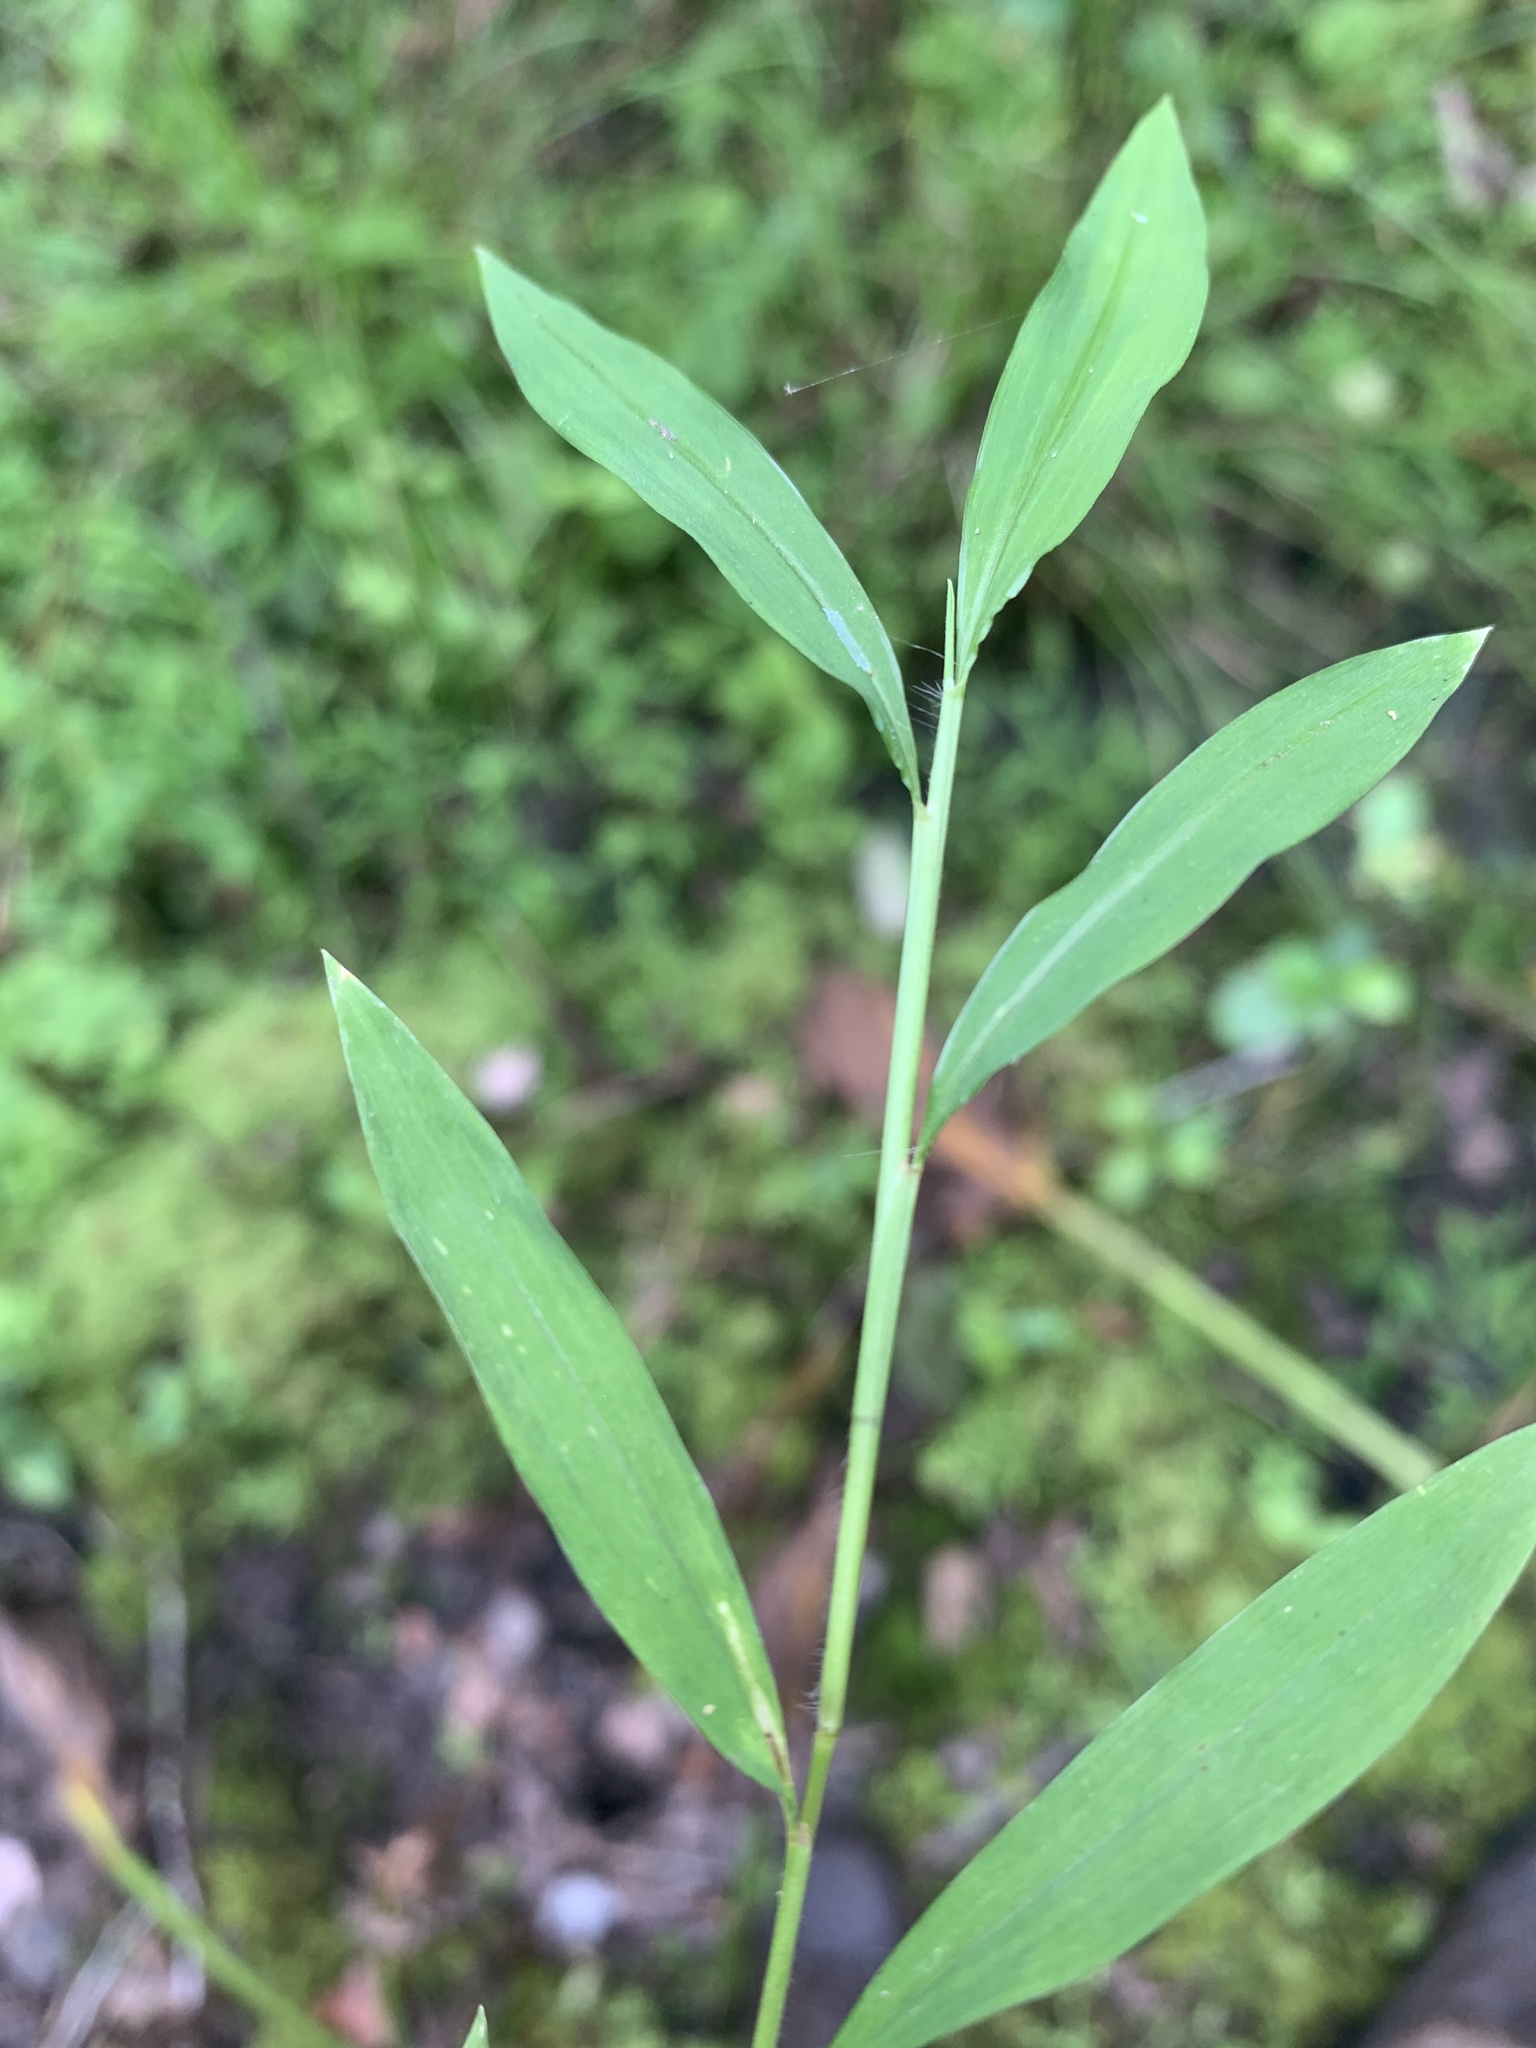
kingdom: Plantae
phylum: Tracheophyta
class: Liliopsida
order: Poales
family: Poaceae
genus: Microstegium
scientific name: Microstegium vimineum
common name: Japanese stiltgrass
